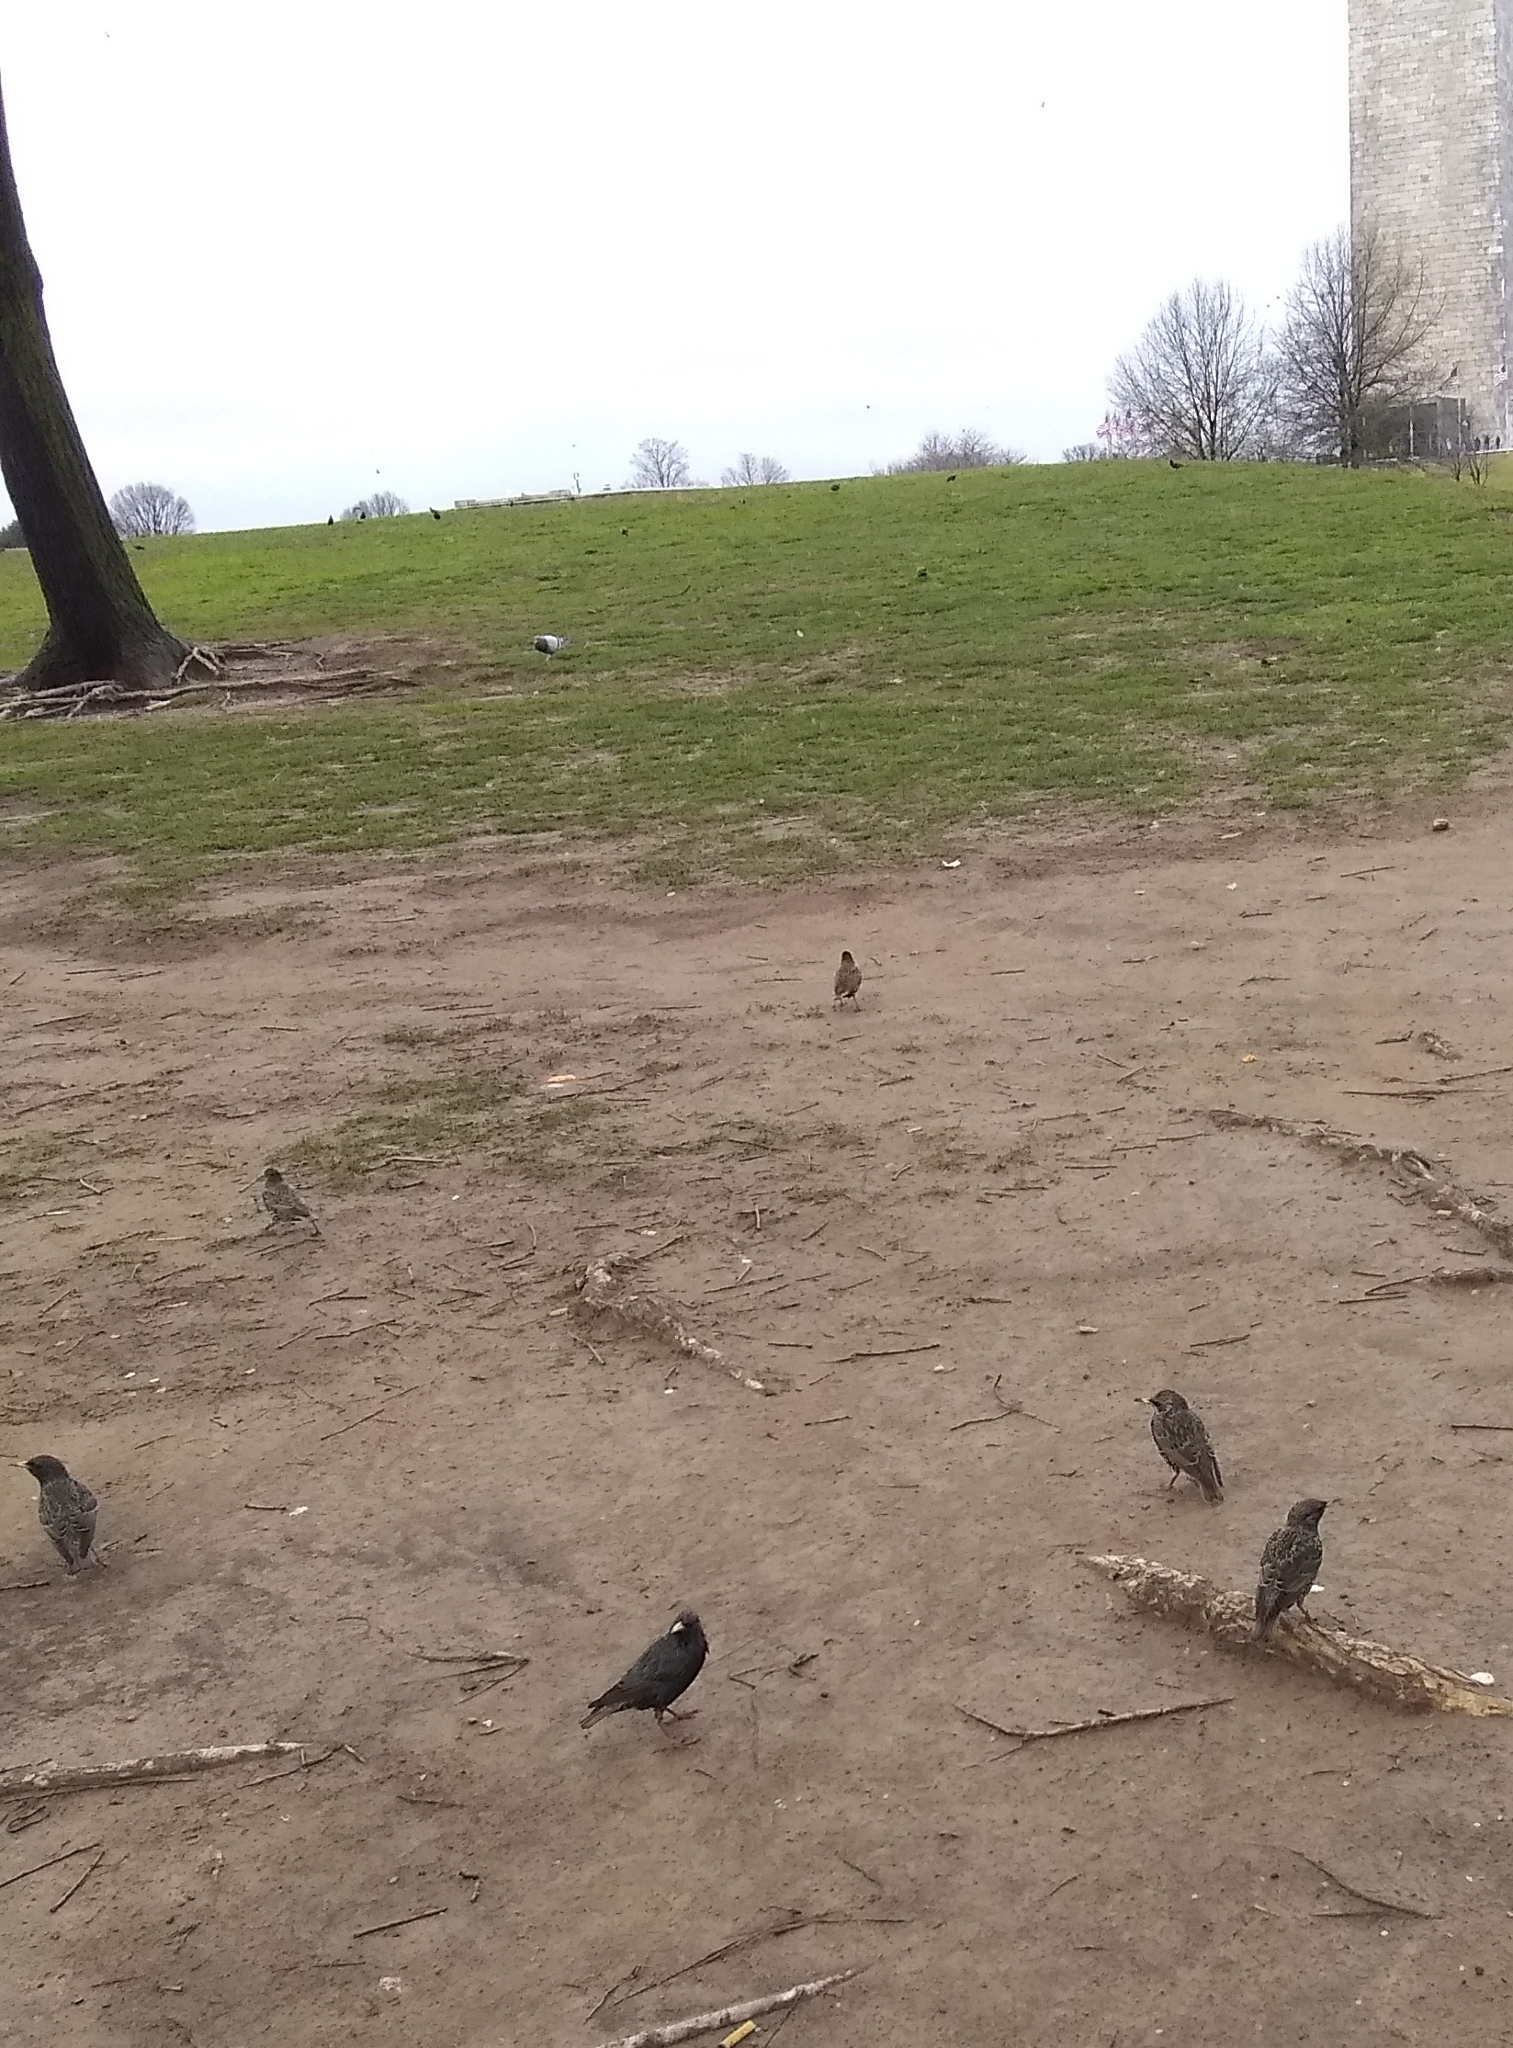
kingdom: Animalia
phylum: Chordata
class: Aves
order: Passeriformes
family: Sturnidae
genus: Sturnus
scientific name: Sturnus vulgaris
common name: Common starling
